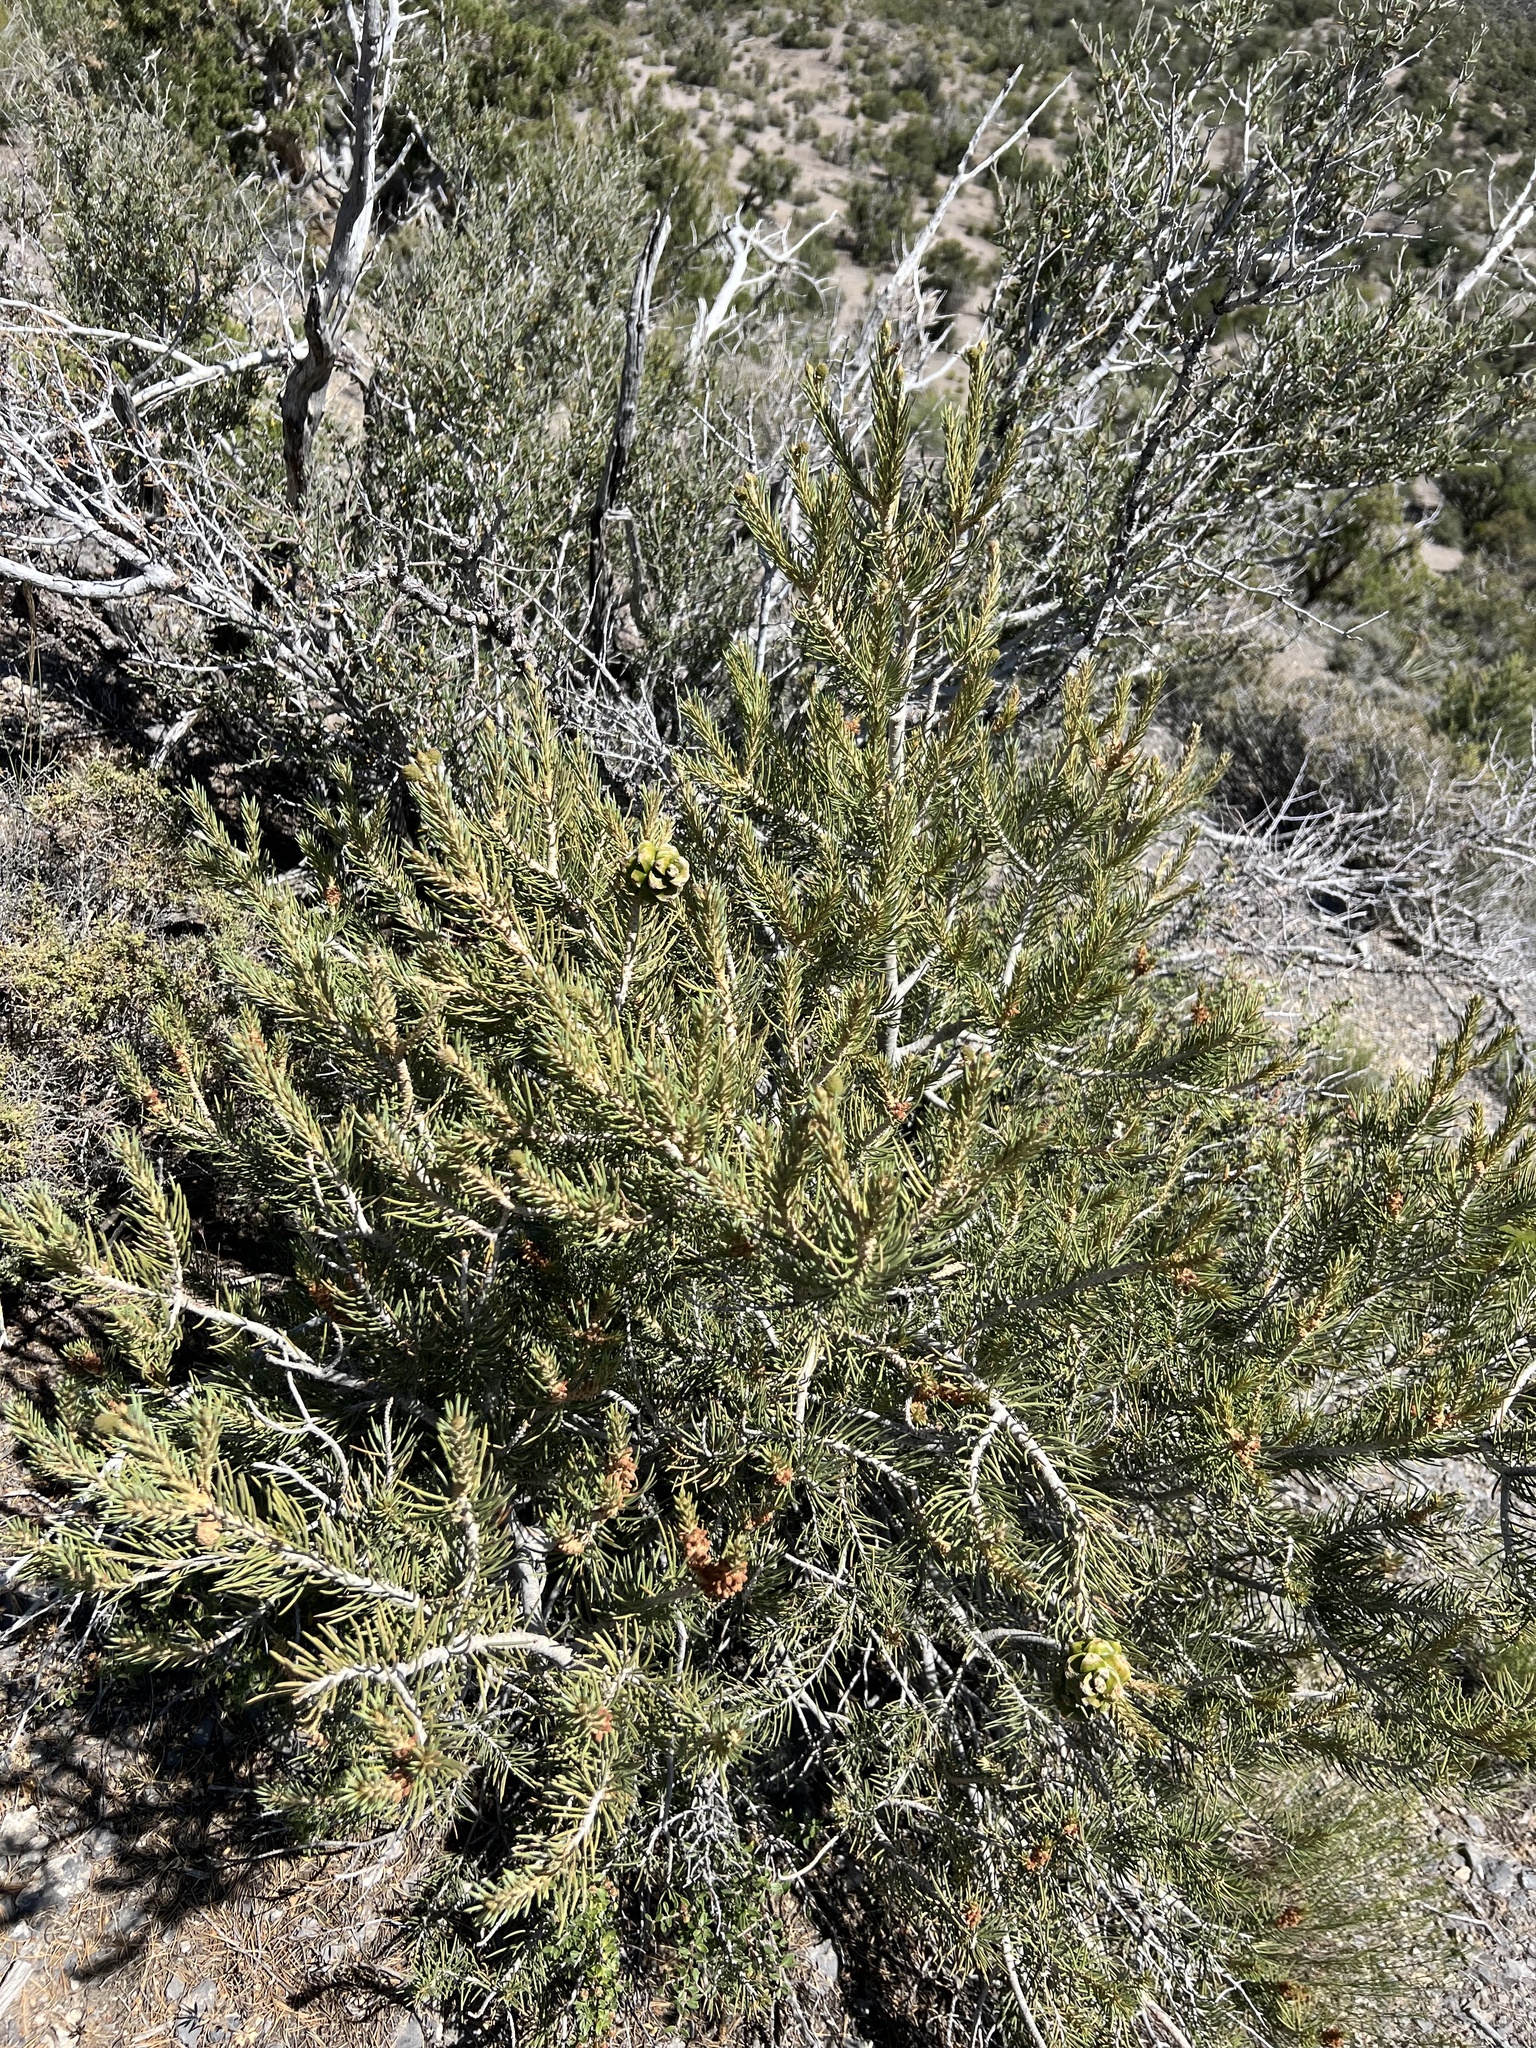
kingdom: Plantae
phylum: Tracheophyta
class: Pinopsida
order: Pinales
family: Pinaceae
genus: Pinus
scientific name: Pinus monophylla
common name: One-leaved nut pine
